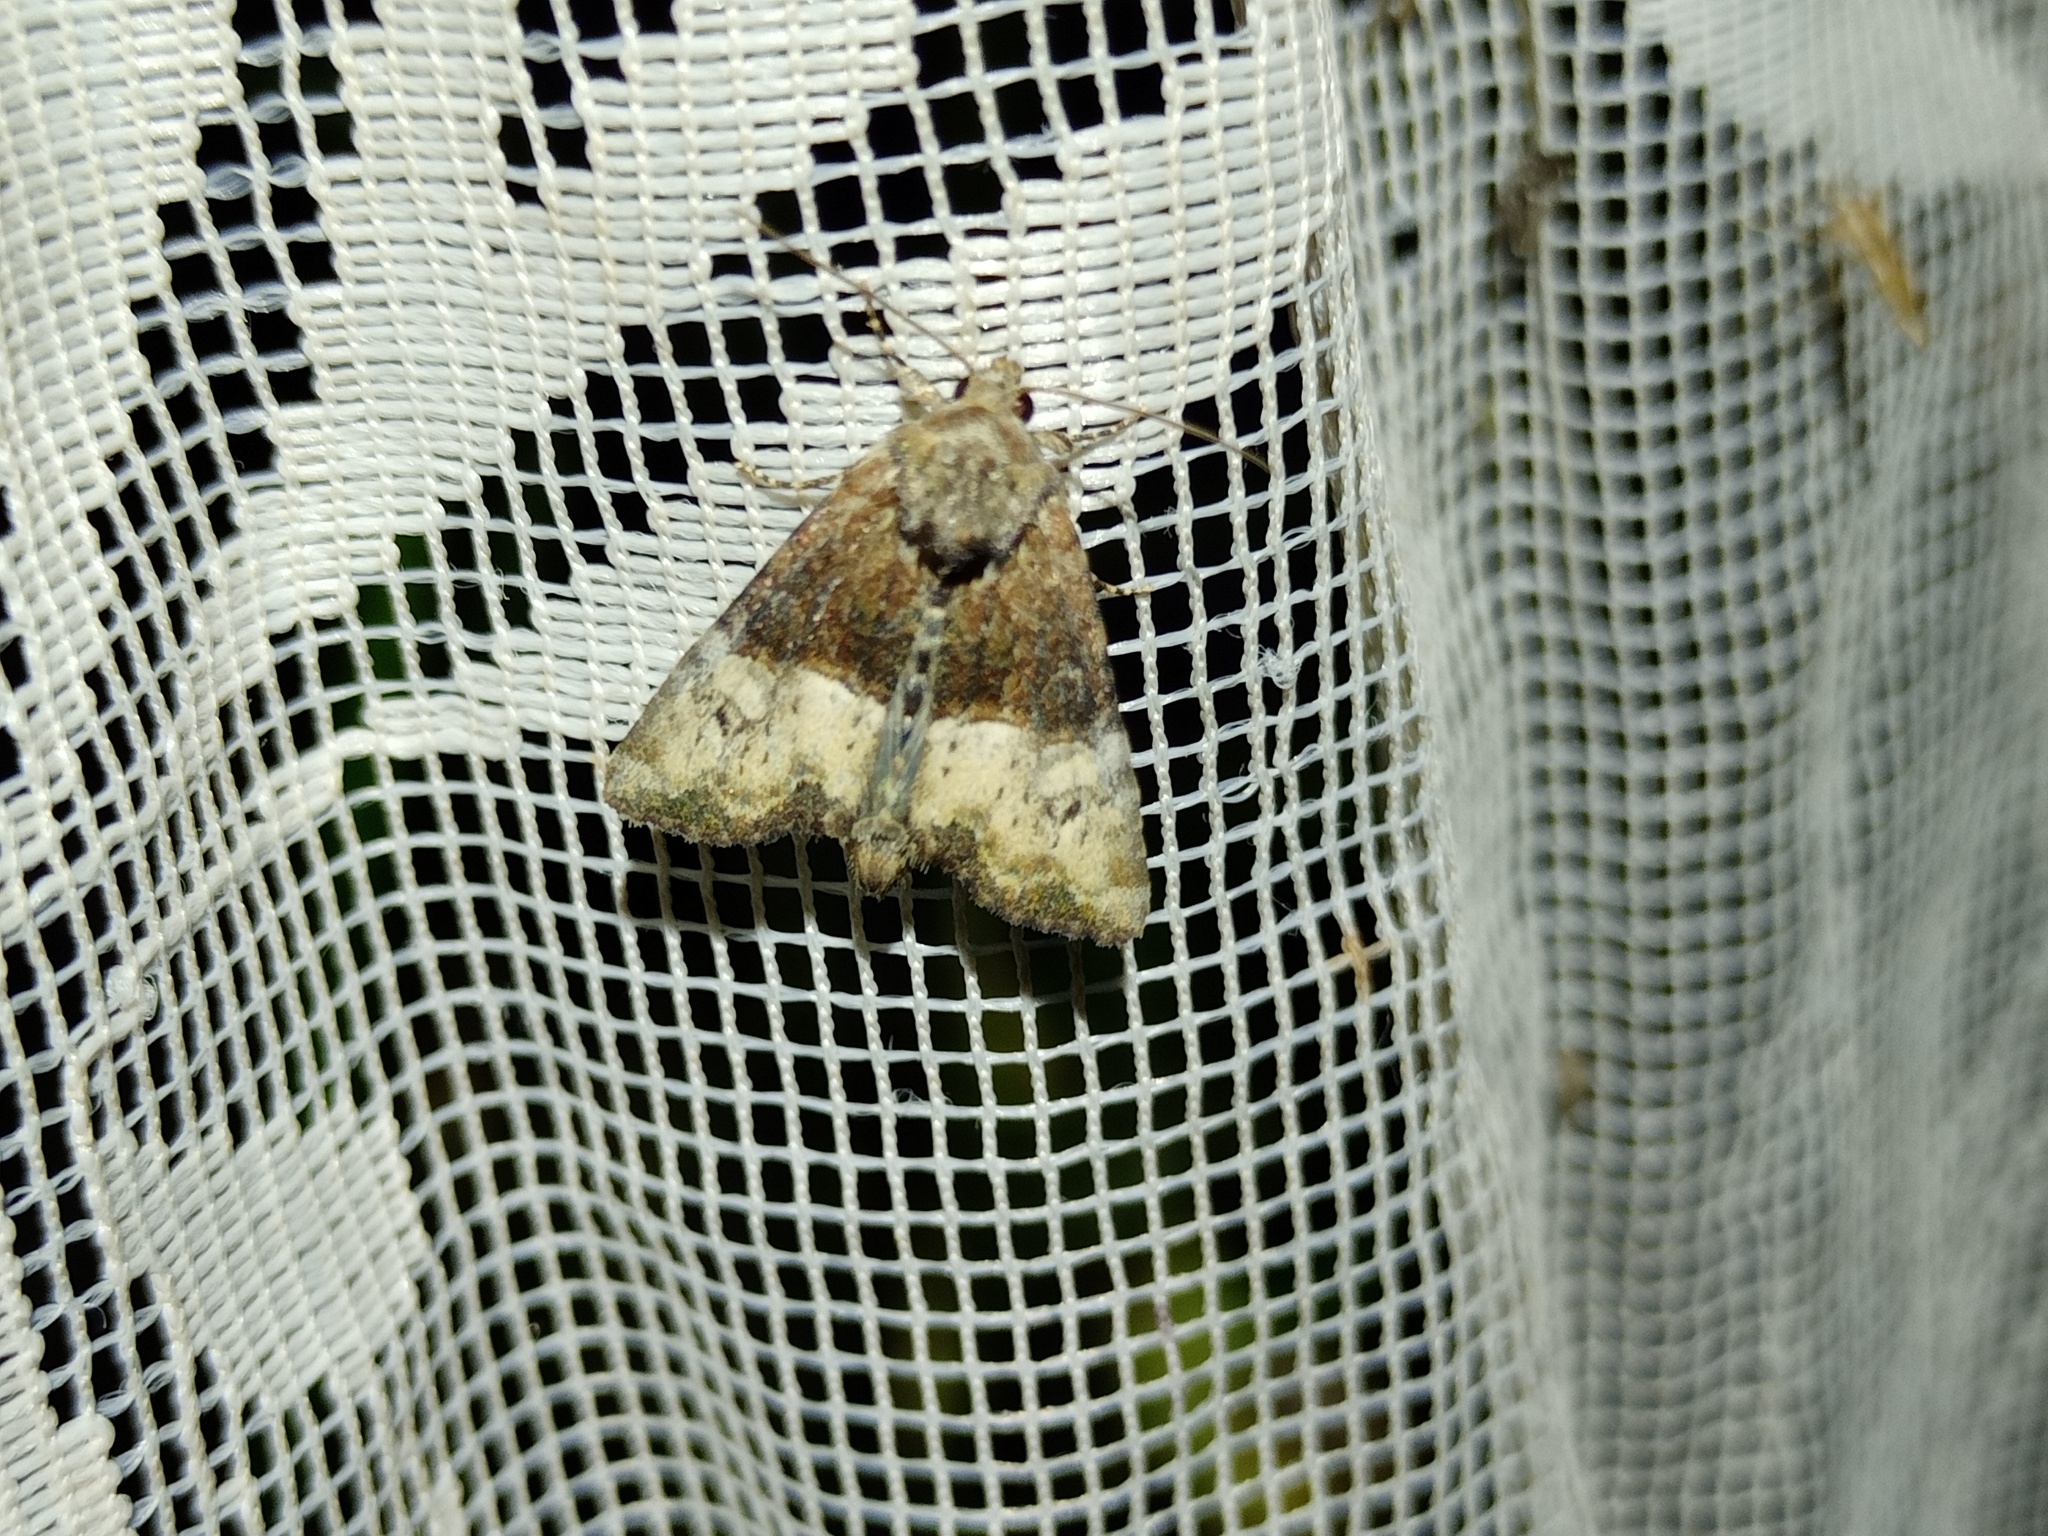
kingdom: Animalia
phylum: Arthropoda
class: Insecta
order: Lepidoptera
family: Noctuidae
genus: Mesoligia
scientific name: Mesoligia furuncula
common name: Cloaked minor
